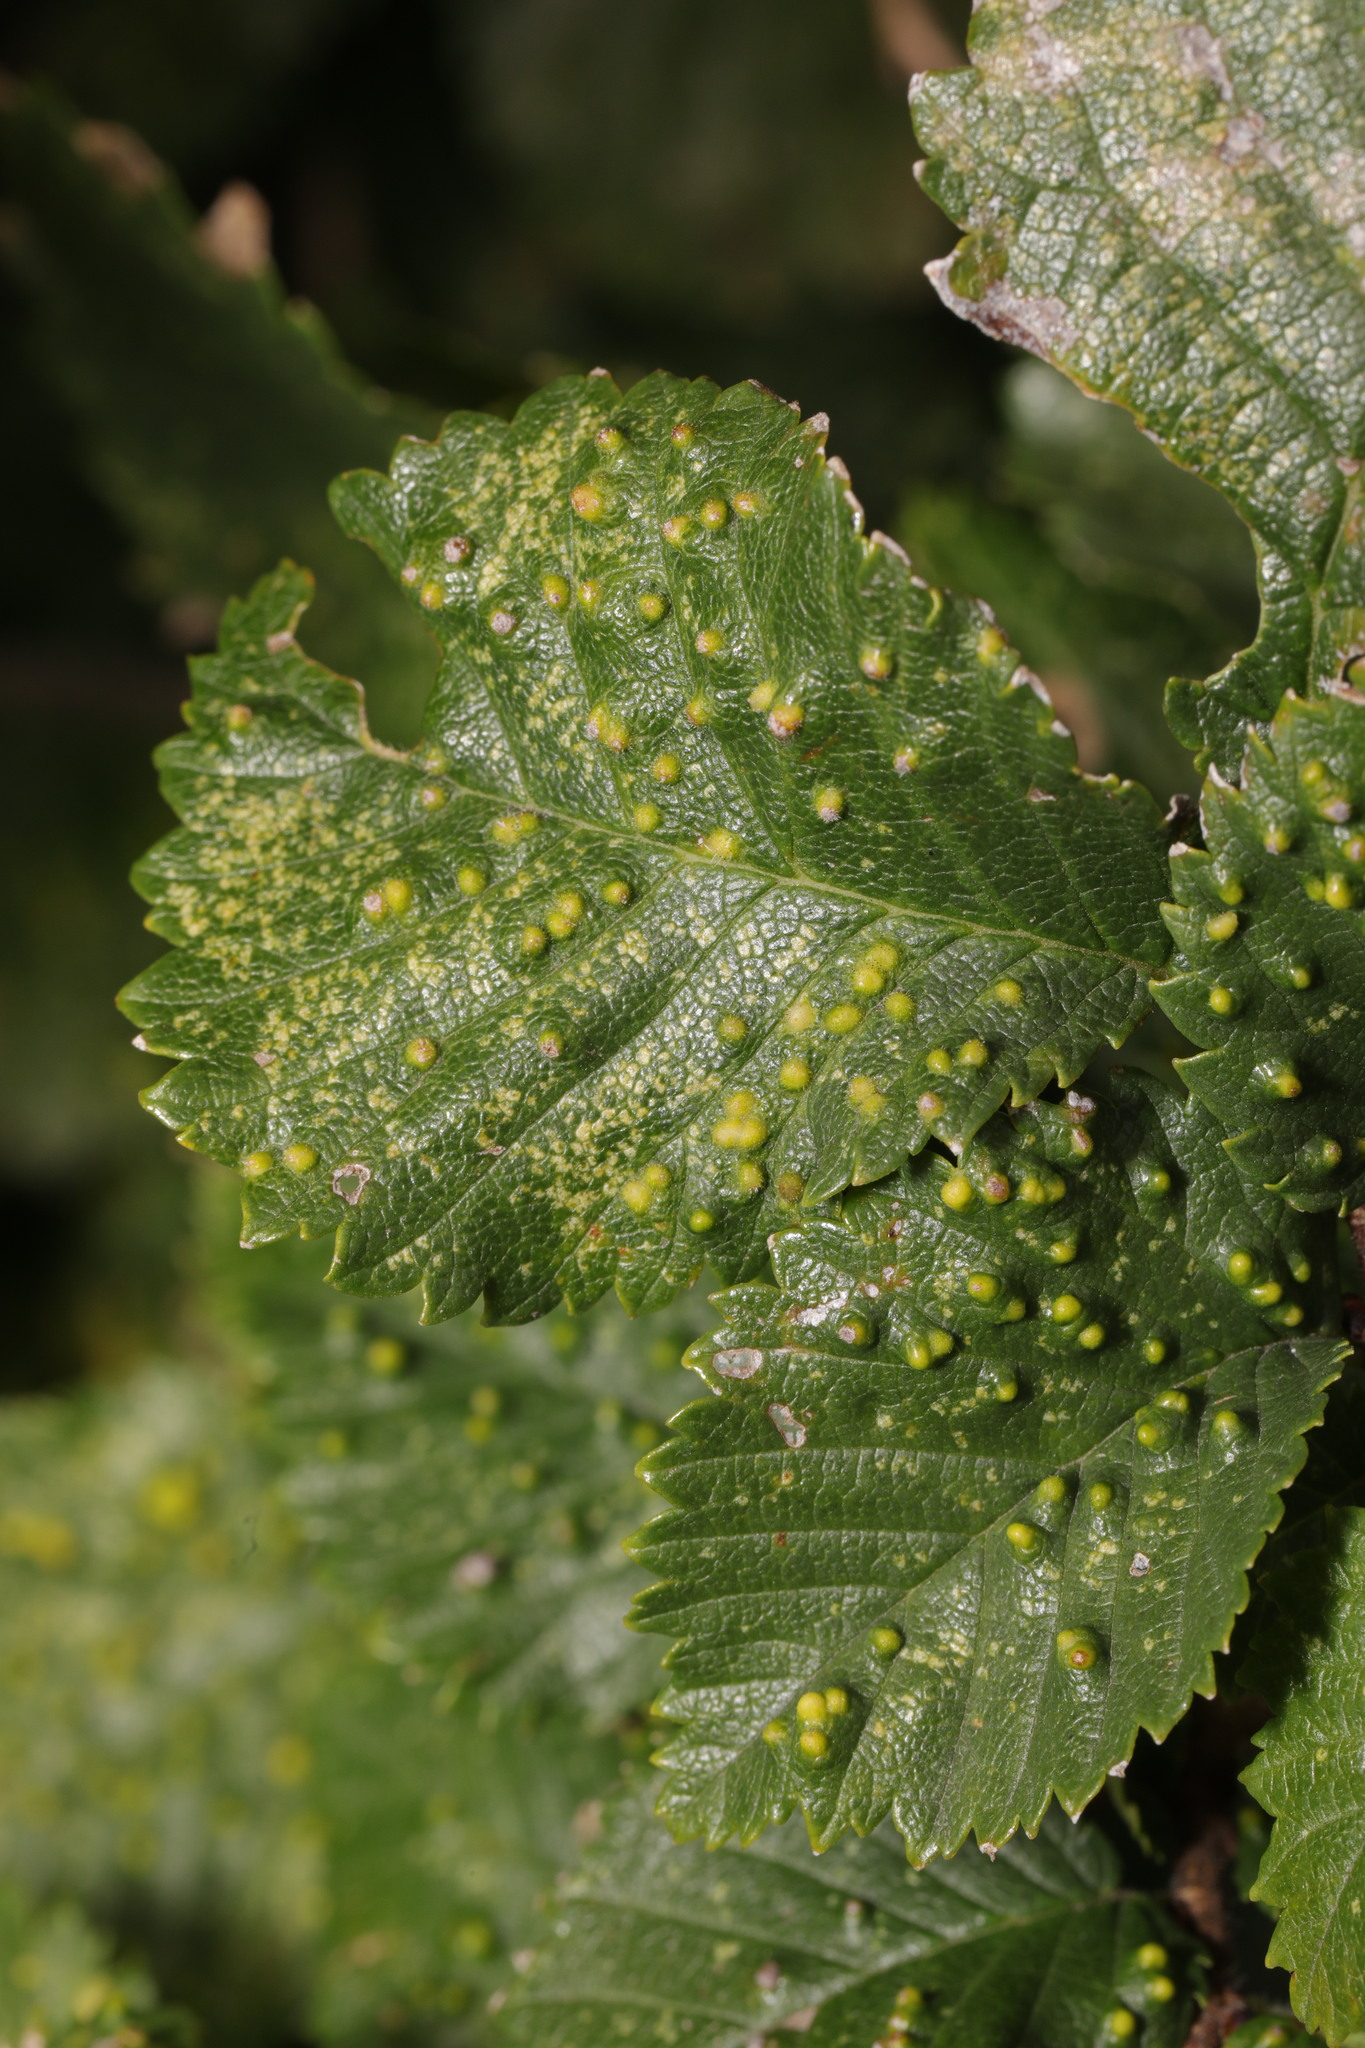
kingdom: Plantae
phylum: Tracheophyta
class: Magnoliopsida
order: Rosales
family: Ulmaceae
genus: Ulmus
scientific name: Ulmus minor
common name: Small-leaved elm
